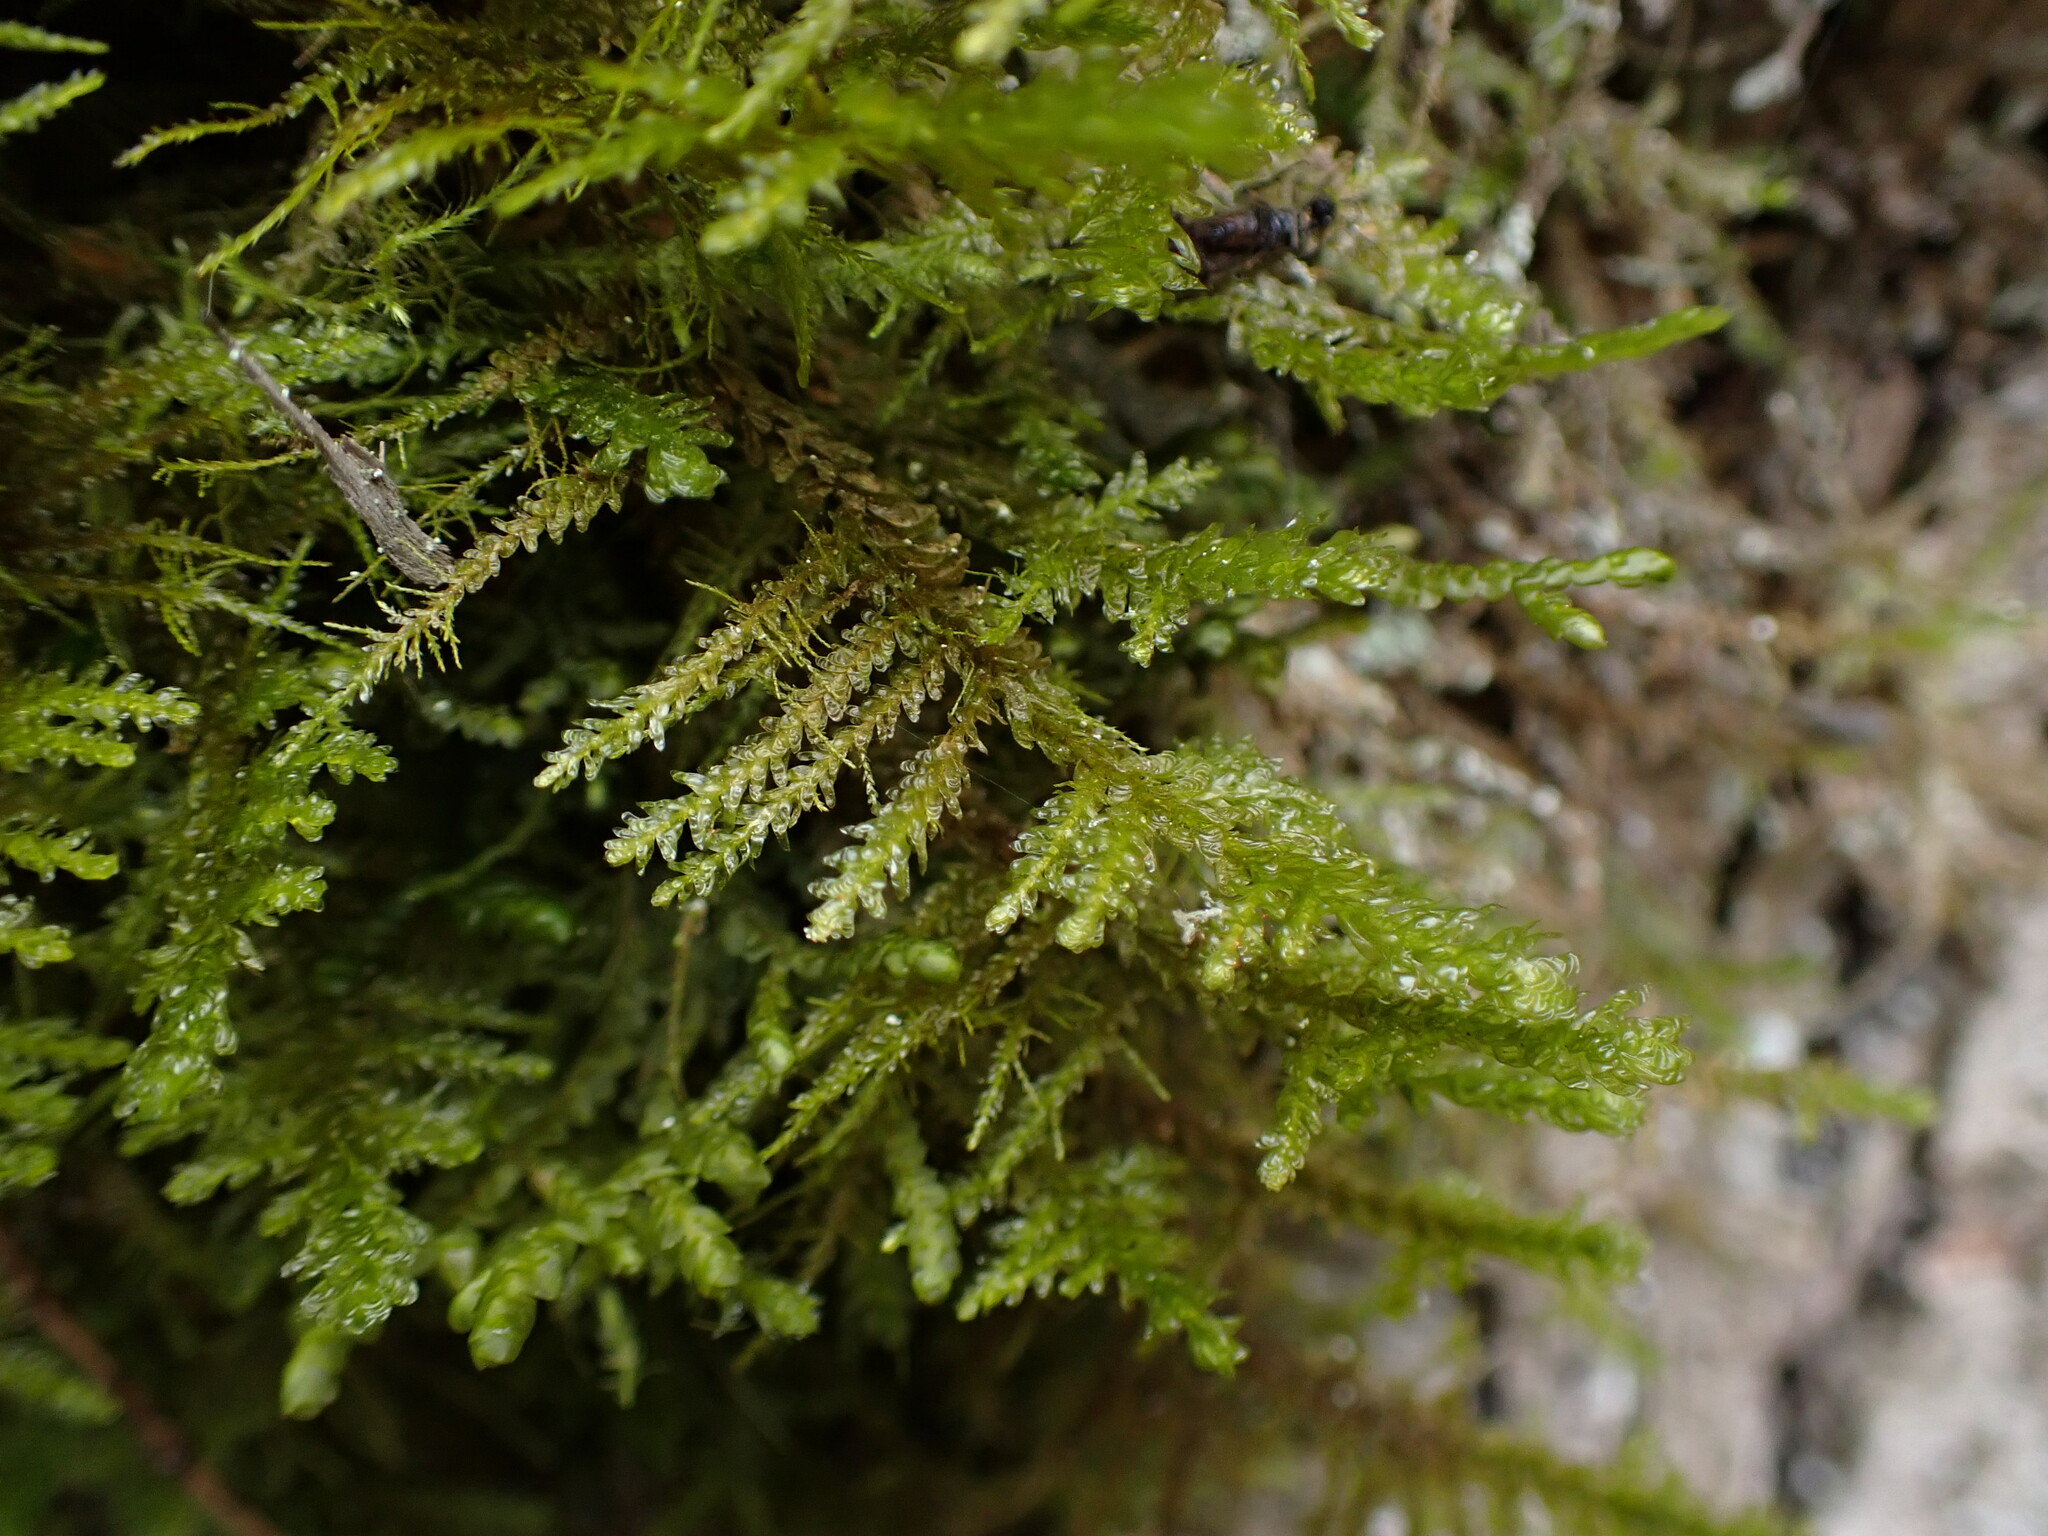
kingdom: Plantae
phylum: Bryophyta
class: Bryopsida
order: Hypnales
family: Neckeraceae
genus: Metaneckera
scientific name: Metaneckera menziesii
